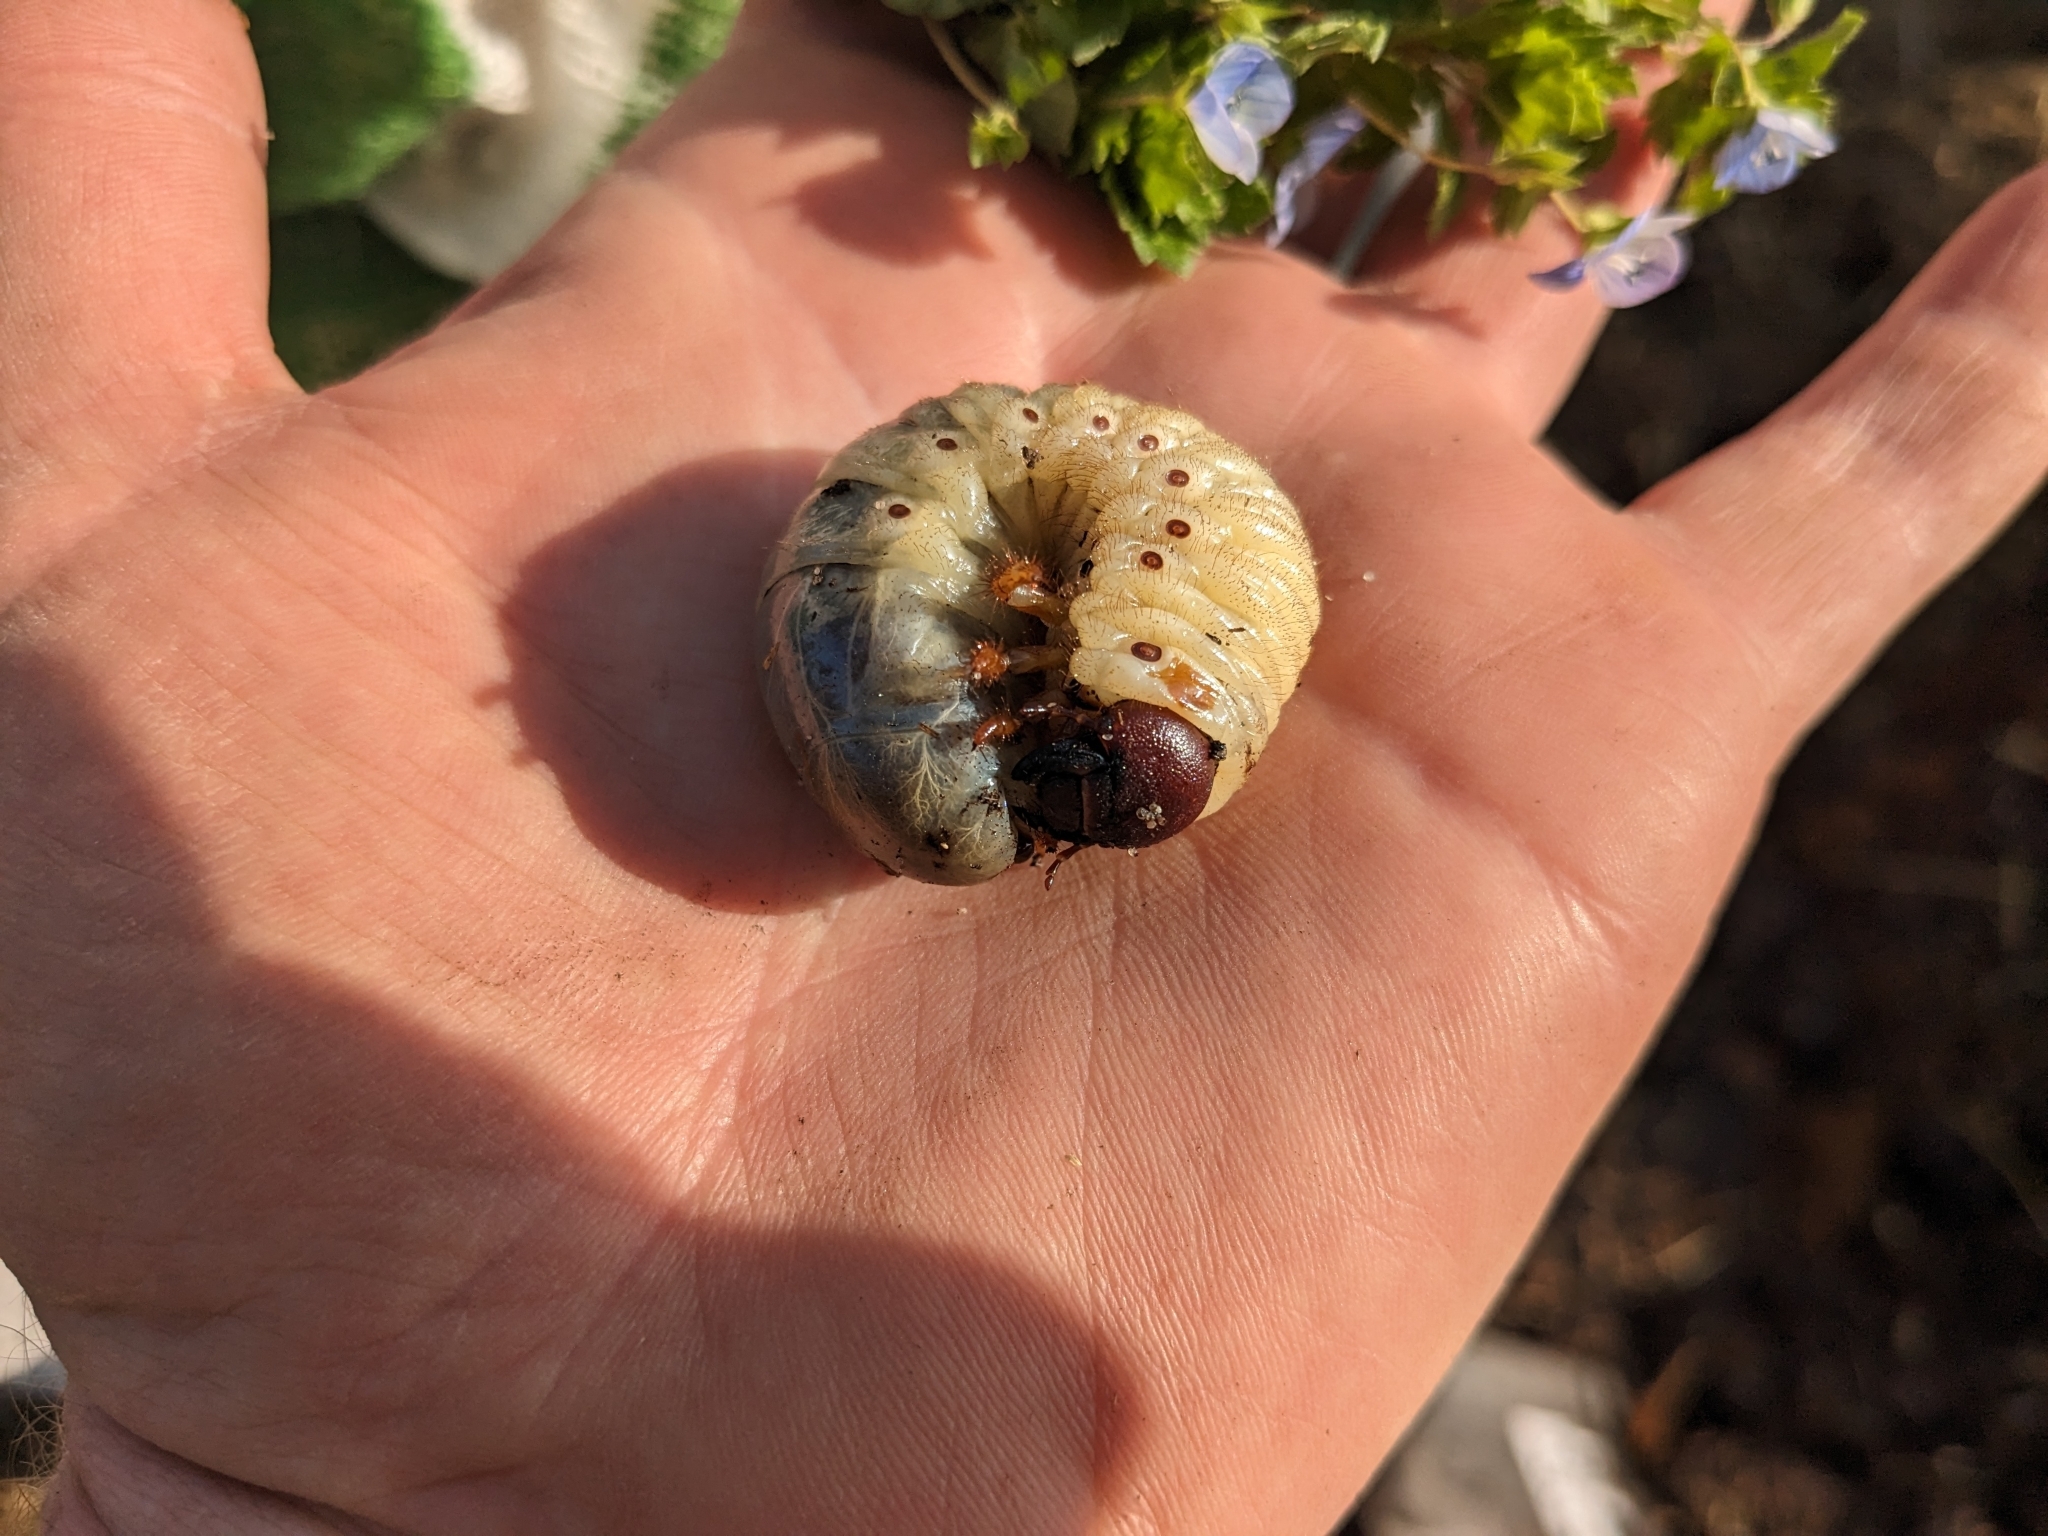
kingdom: Animalia
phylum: Arthropoda
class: Insecta
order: Coleoptera
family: Scarabaeidae
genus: Oryctes
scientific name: Oryctes nasicornis
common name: European rhinoceros beetle
